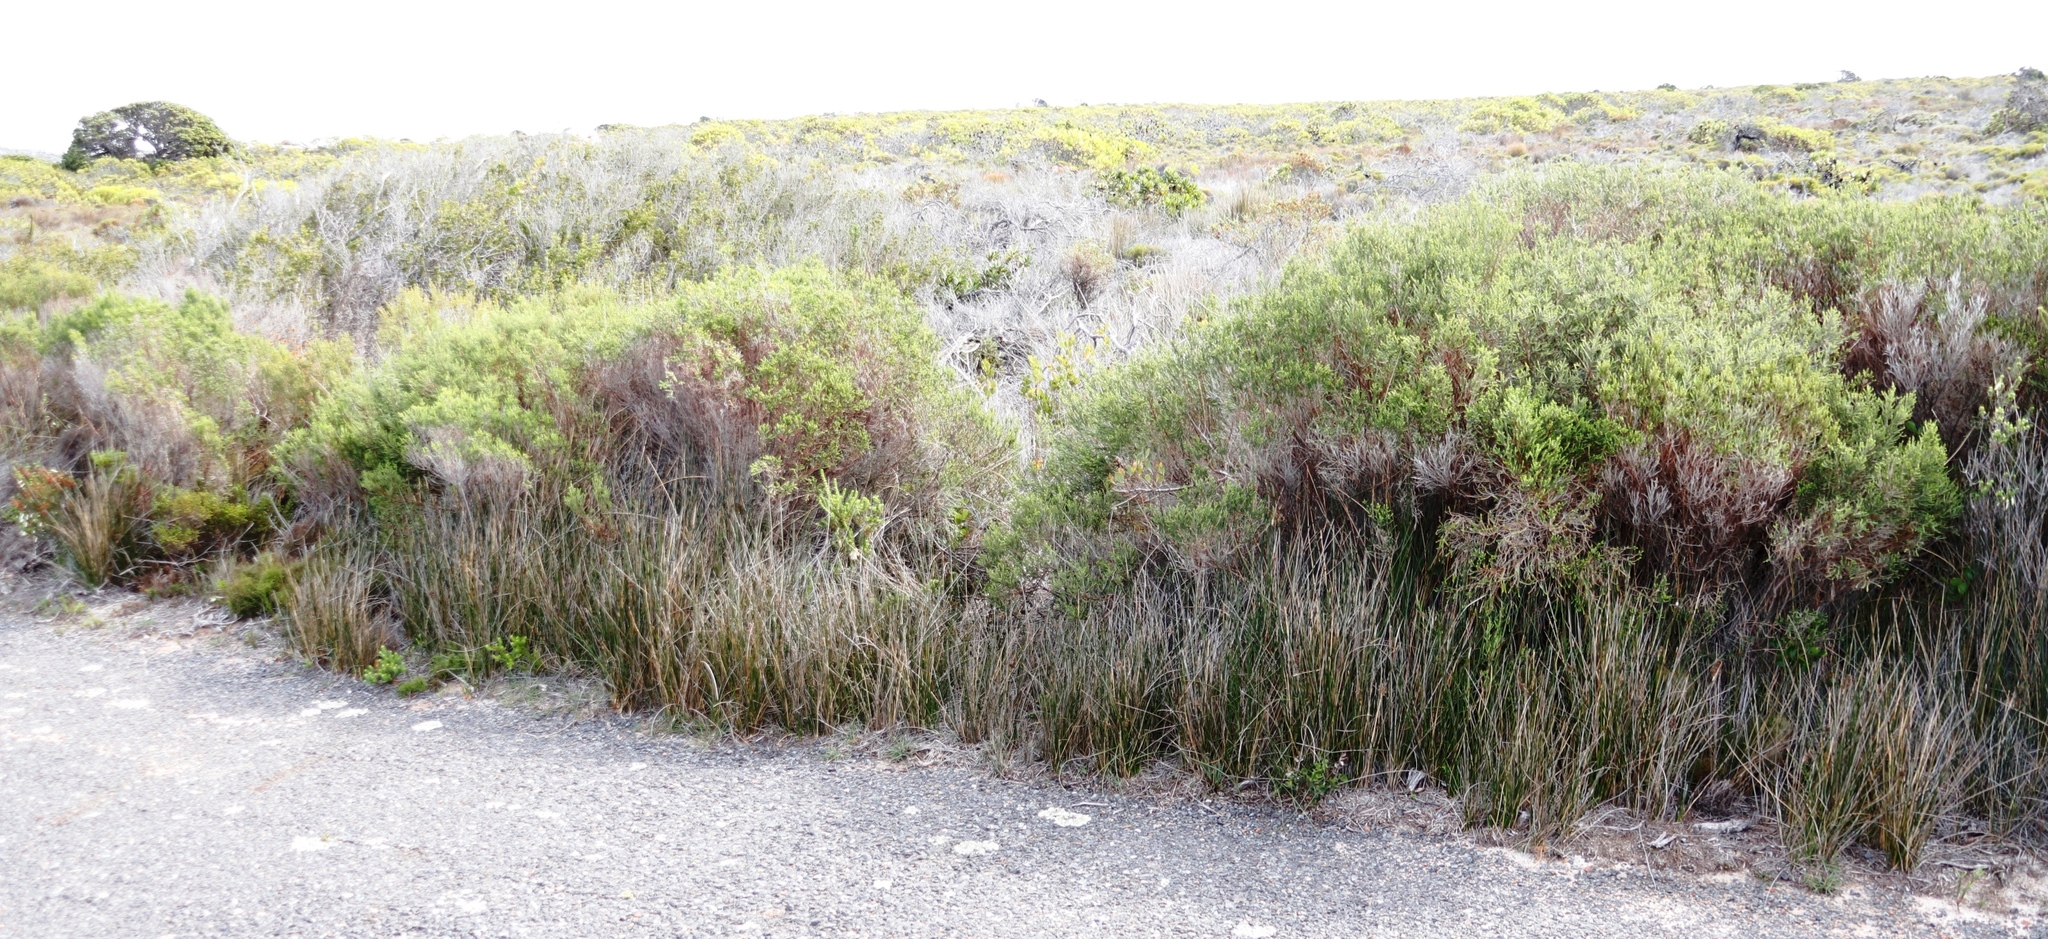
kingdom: Plantae
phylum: Tracheophyta
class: Liliopsida
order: Poales
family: Juncaceae
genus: Juncus
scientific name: Juncus kraussii
